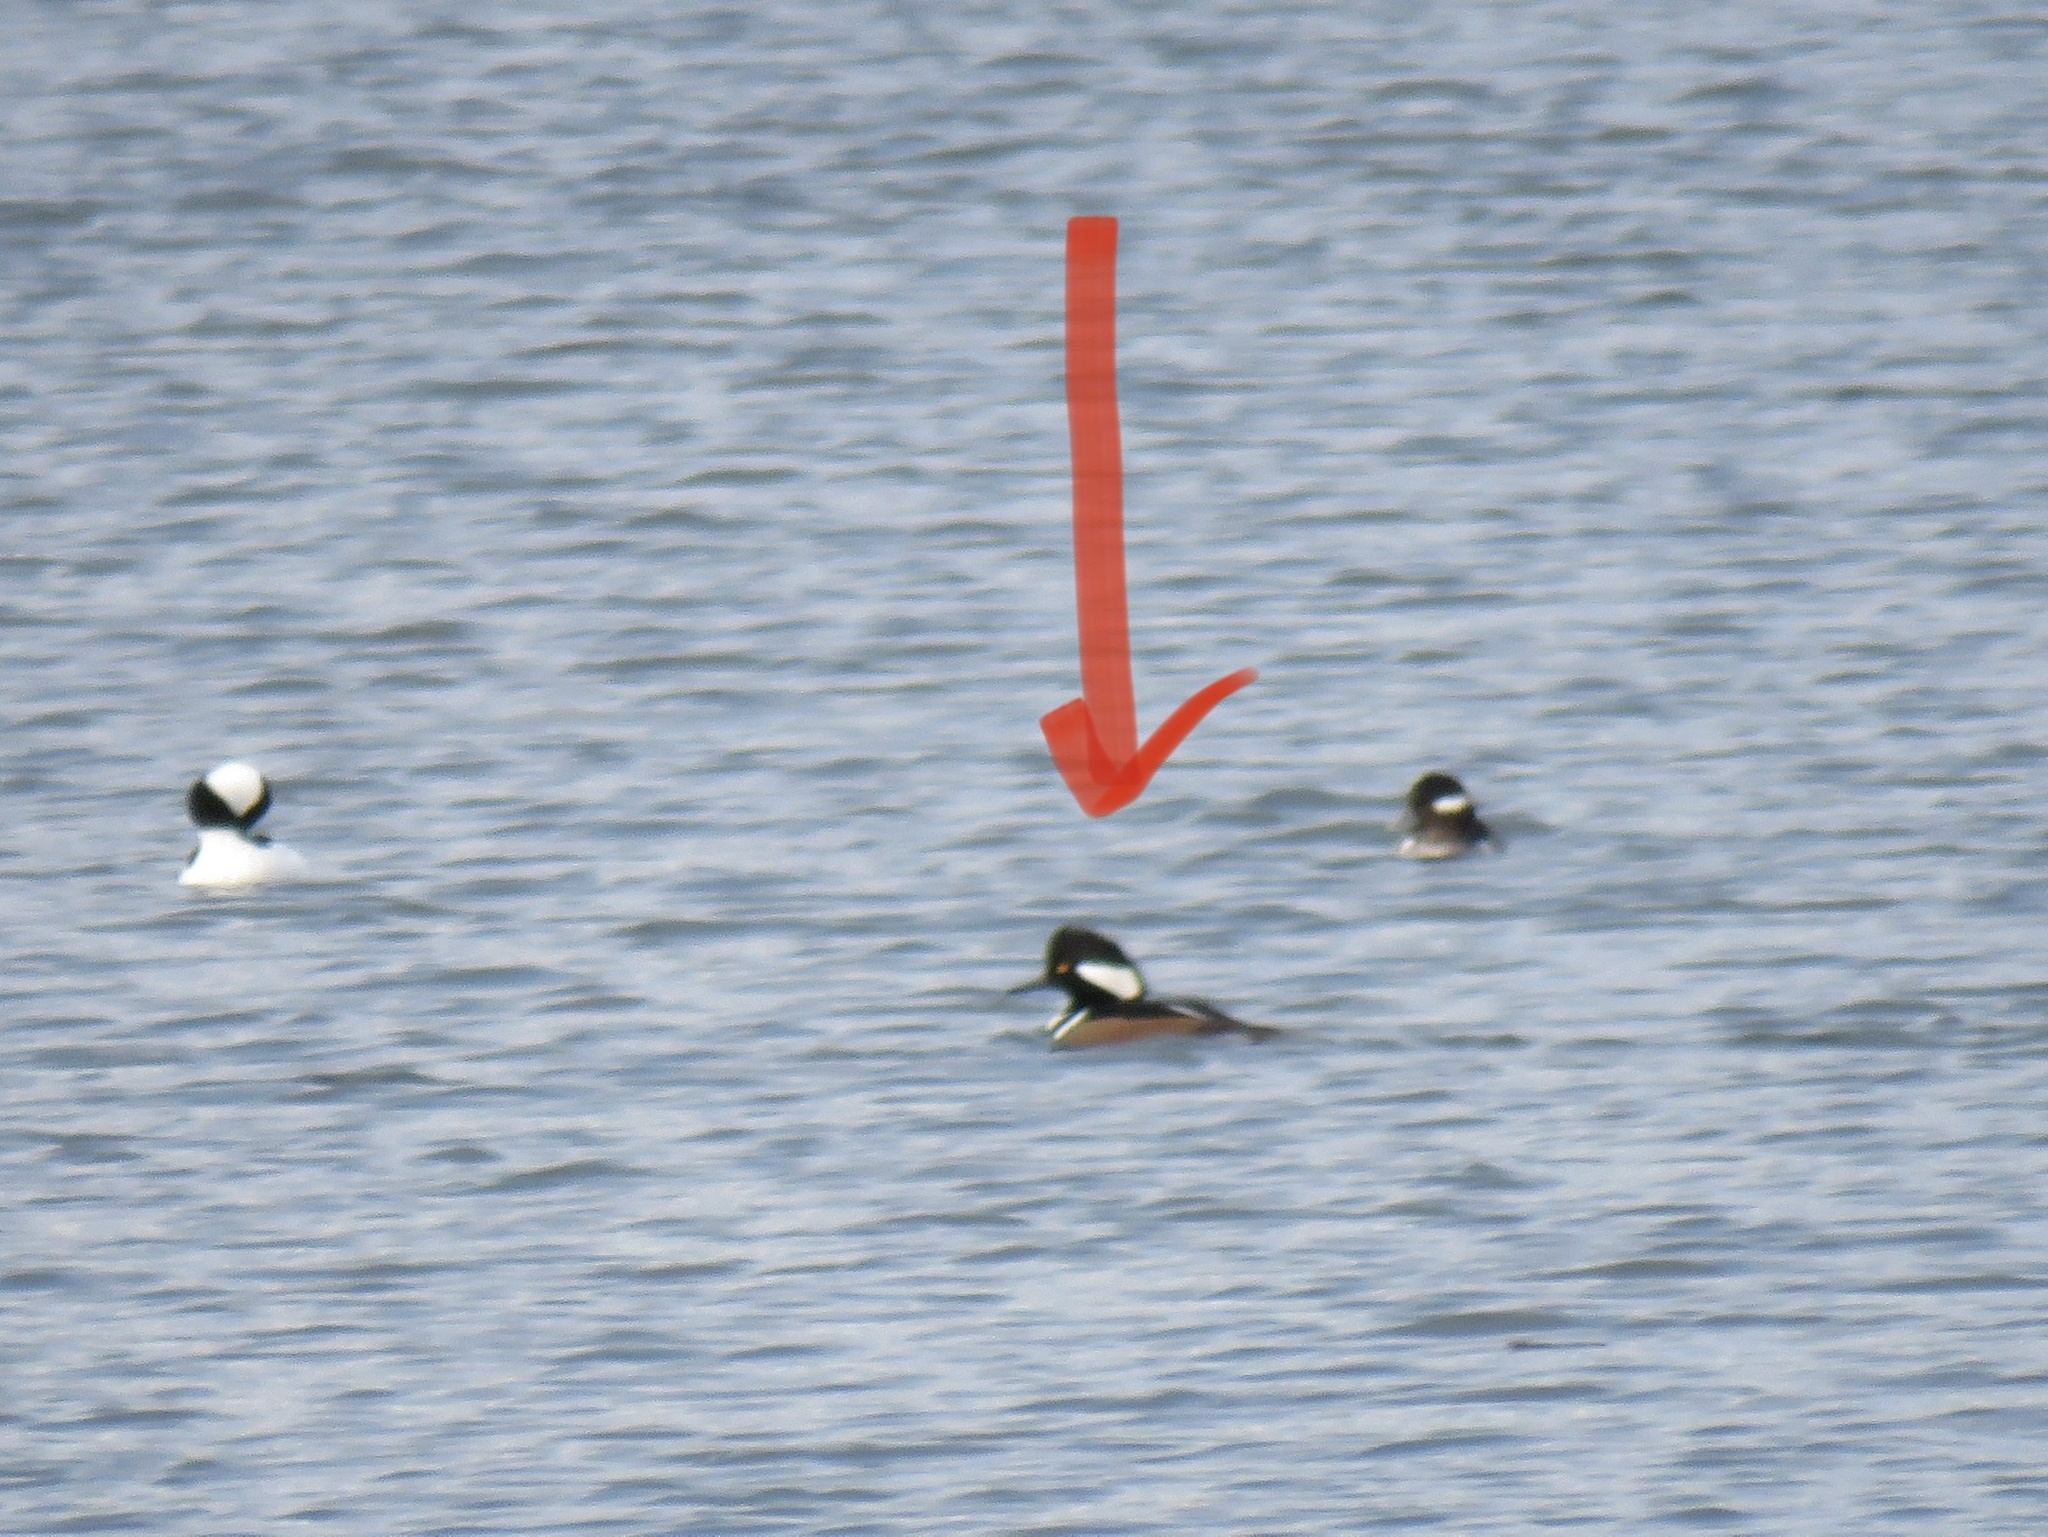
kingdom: Animalia
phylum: Chordata
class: Aves
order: Anseriformes
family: Anatidae
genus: Lophodytes
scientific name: Lophodytes cucullatus
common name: Hooded merganser
